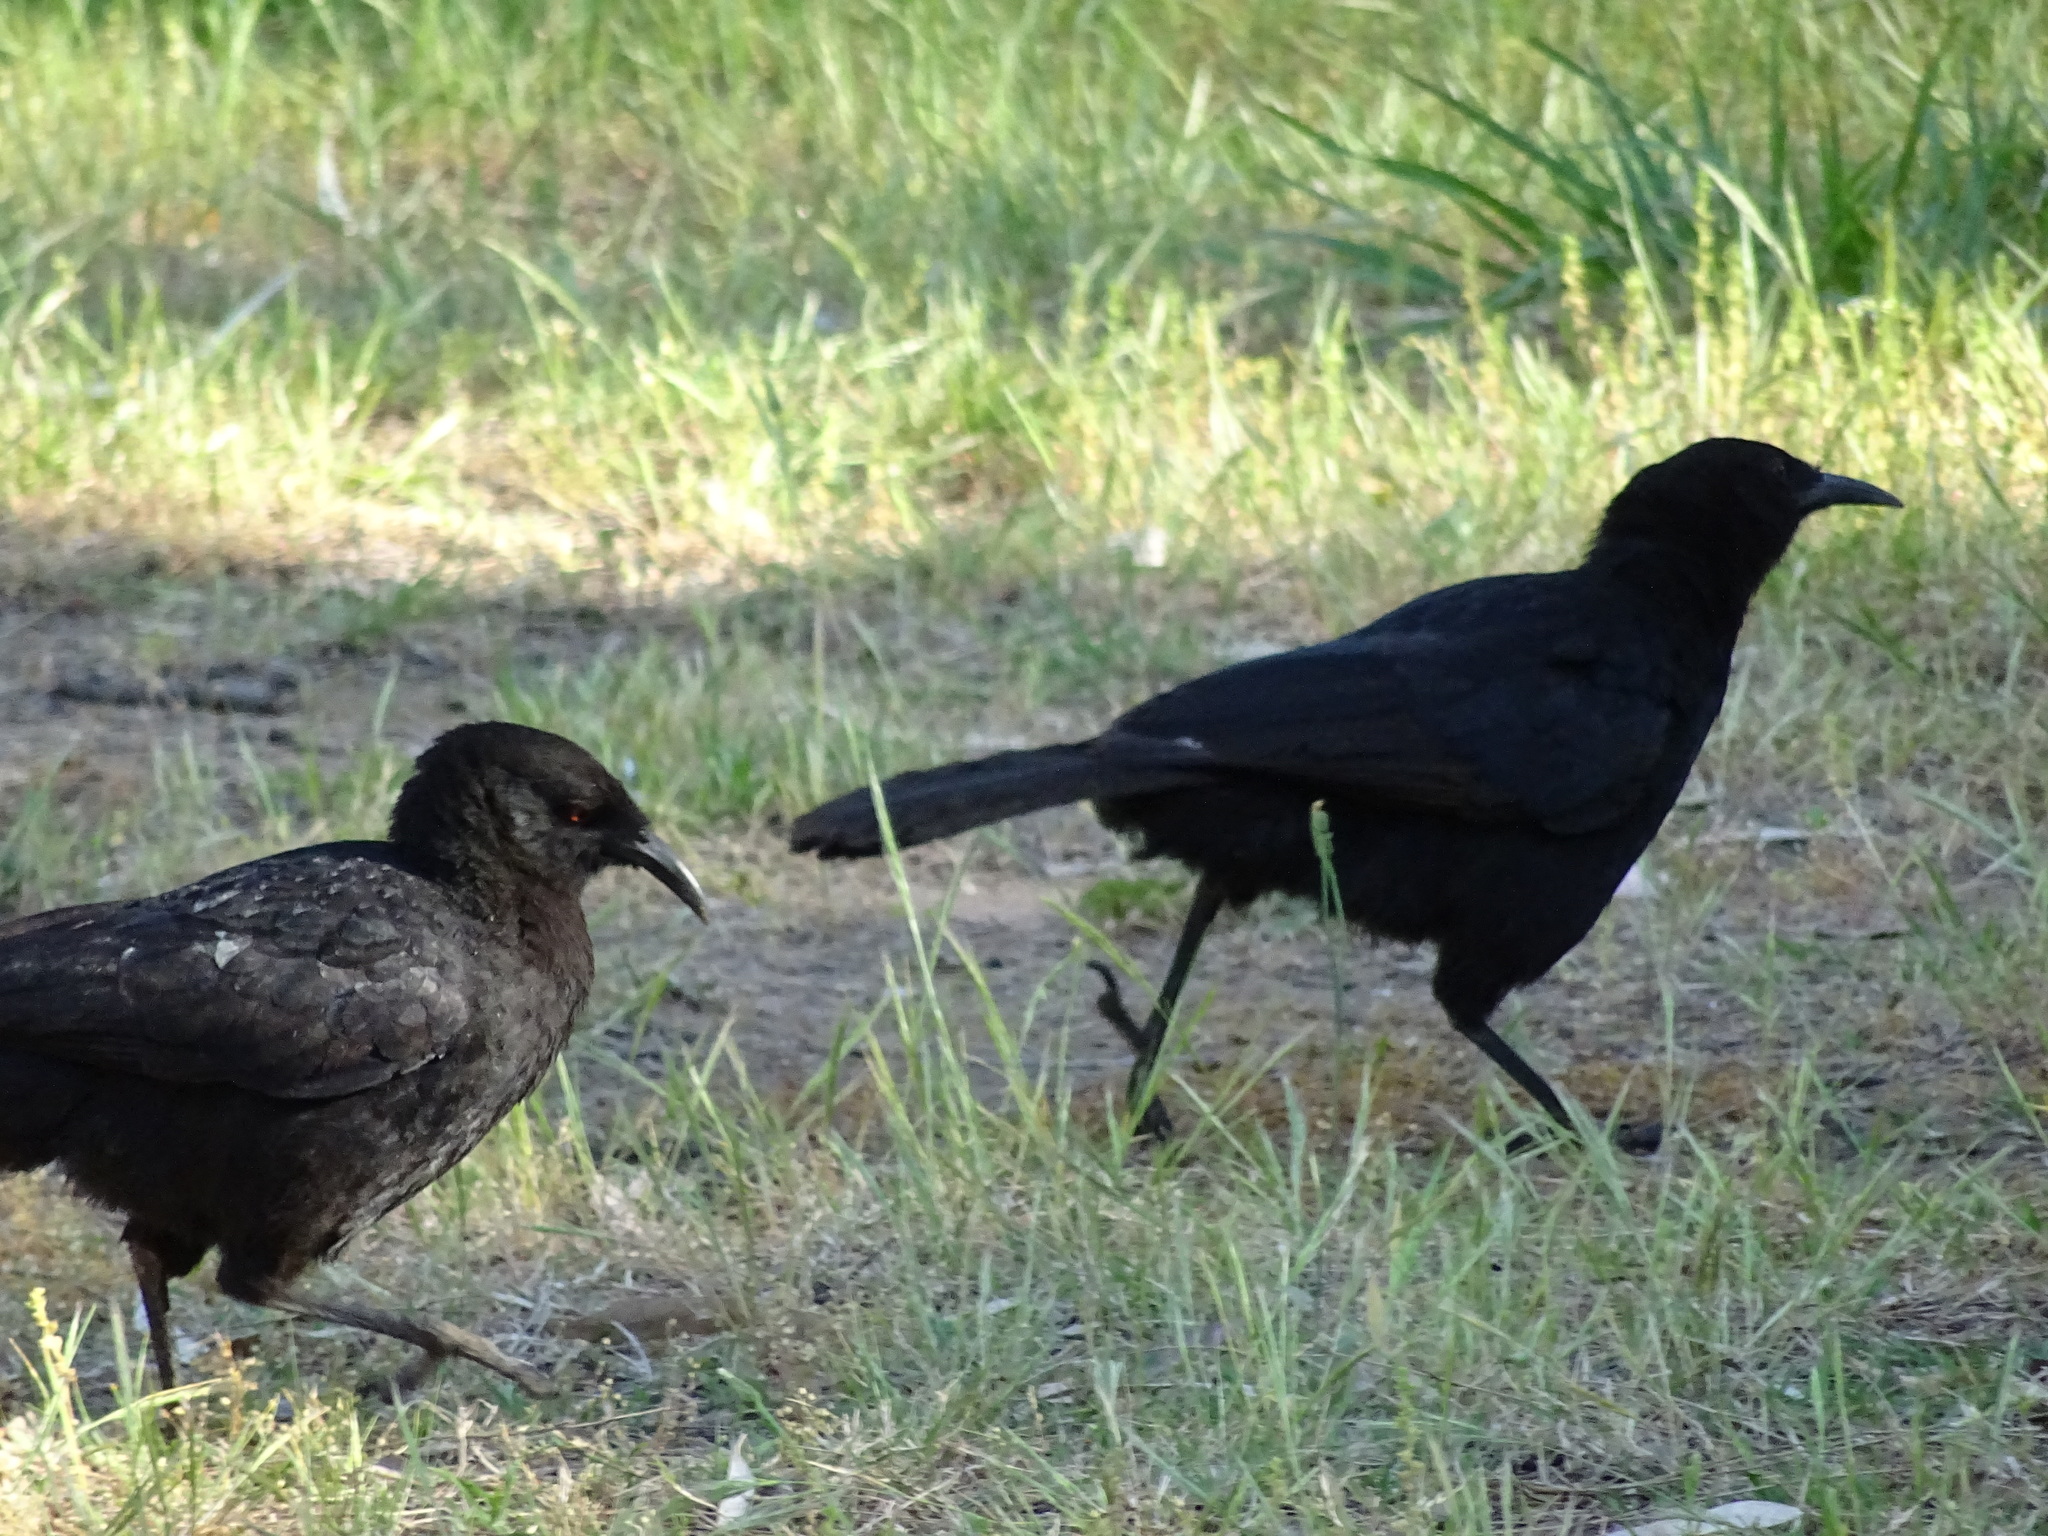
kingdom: Animalia
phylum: Chordata
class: Aves
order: Passeriformes
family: Corcoracidae
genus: Corcorax
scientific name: Corcorax melanoramphos
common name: White-winged chough
